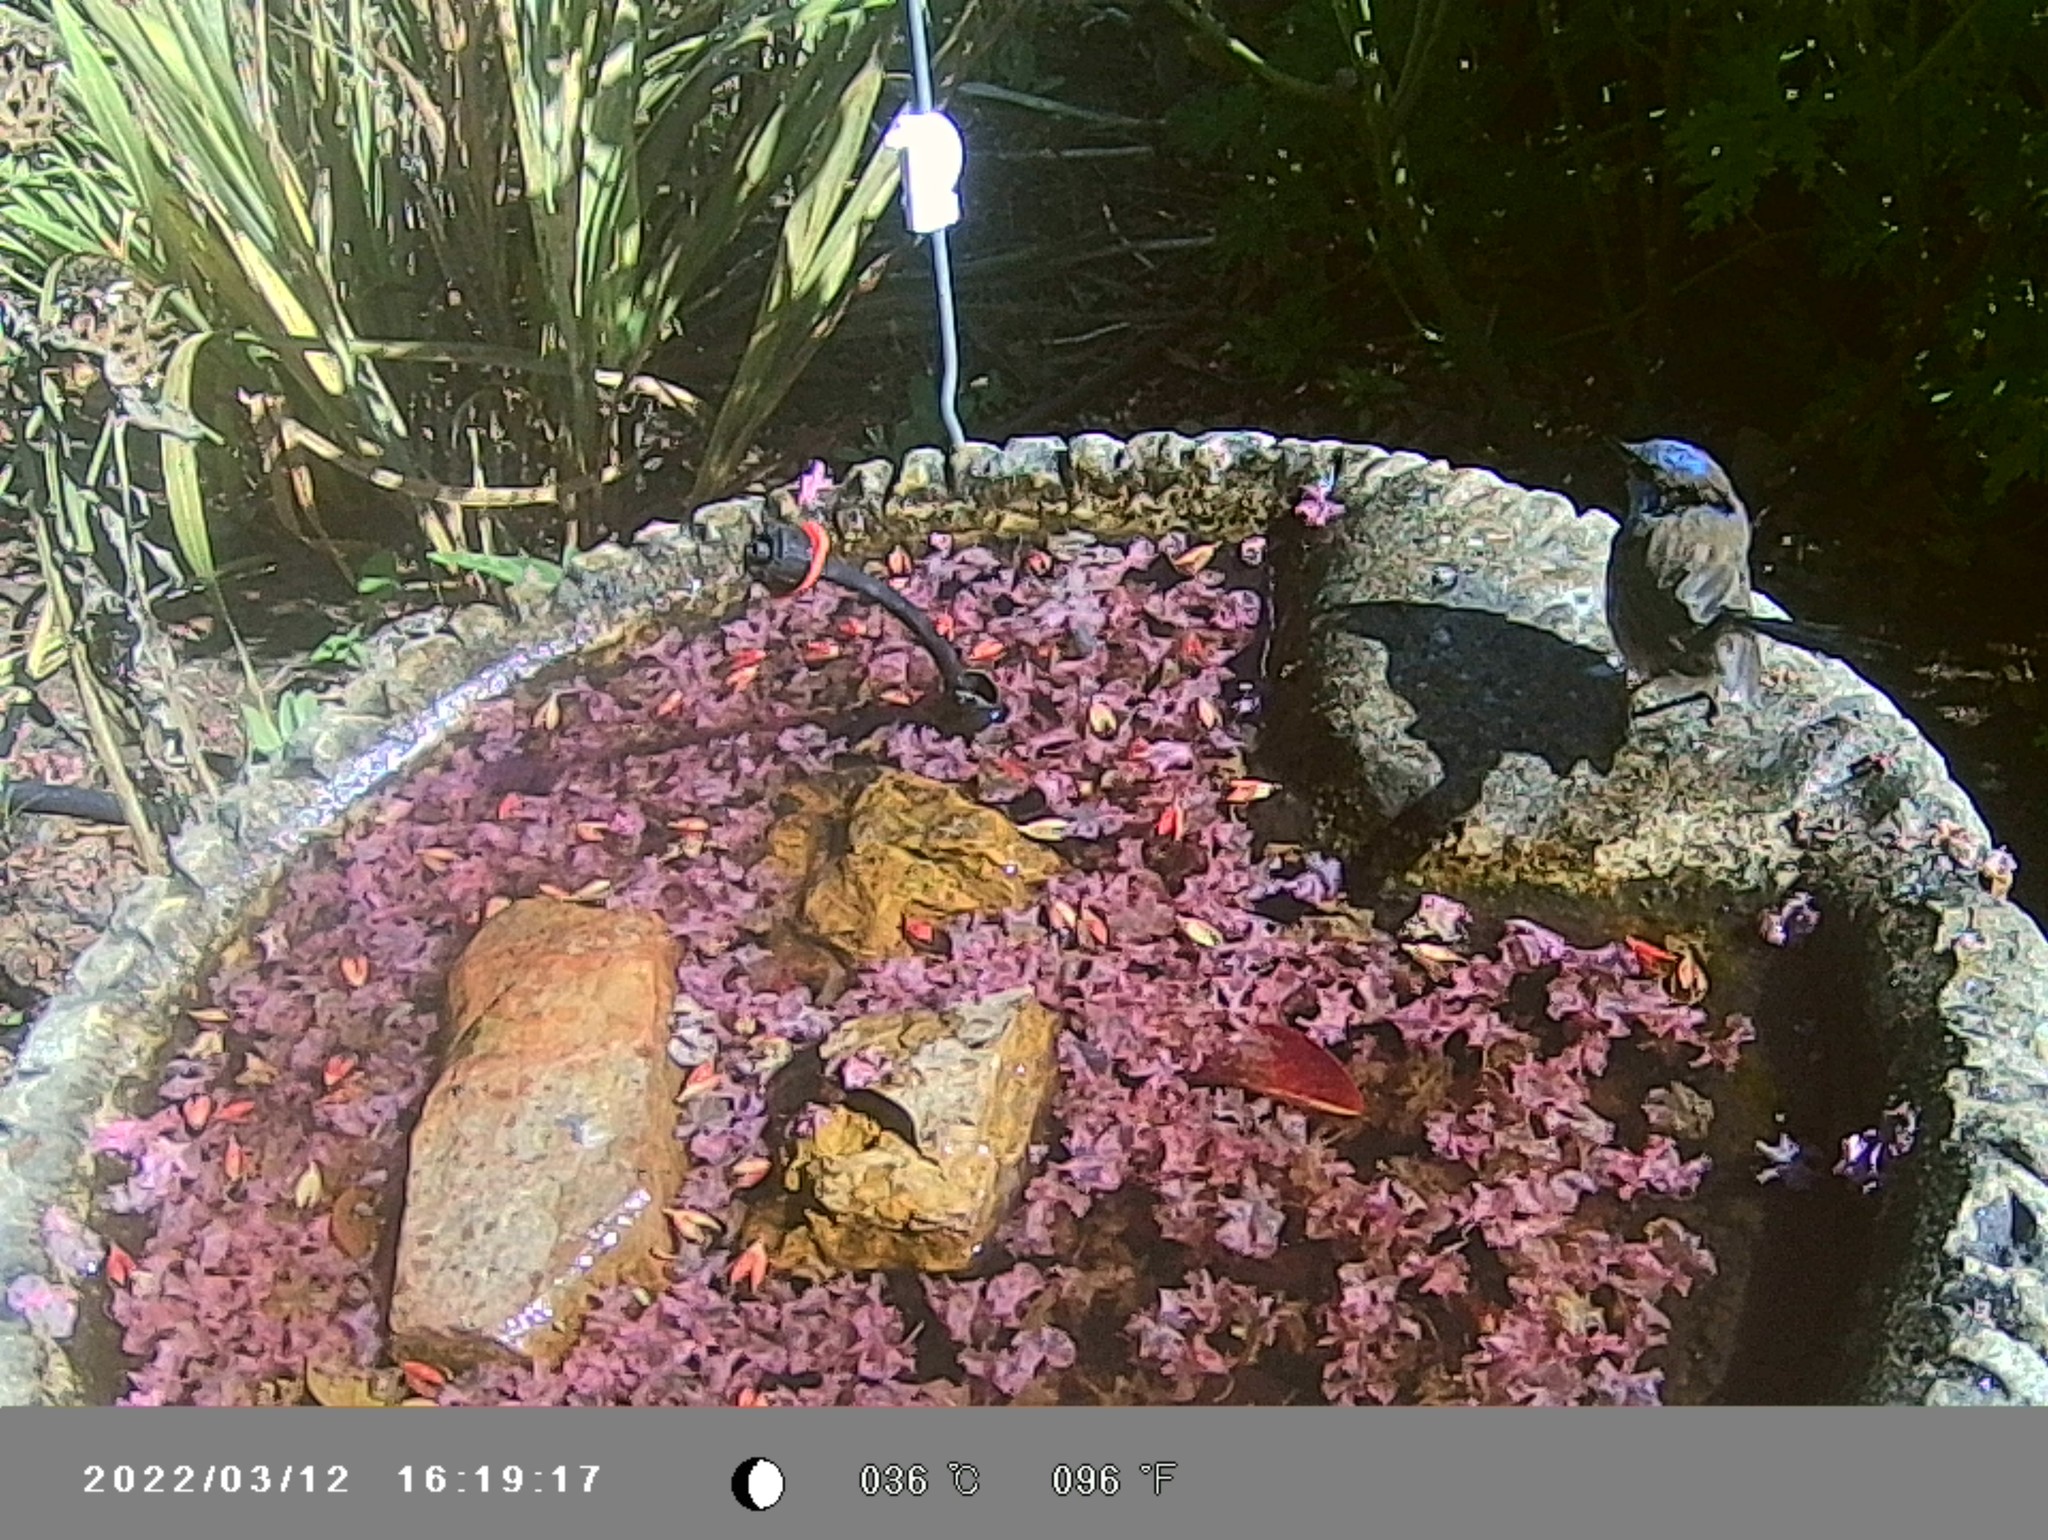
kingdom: Animalia
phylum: Chordata
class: Aves
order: Passeriformes
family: Maluridae
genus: Malurus
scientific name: Malurus cyaneus
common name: Superb fairywren
